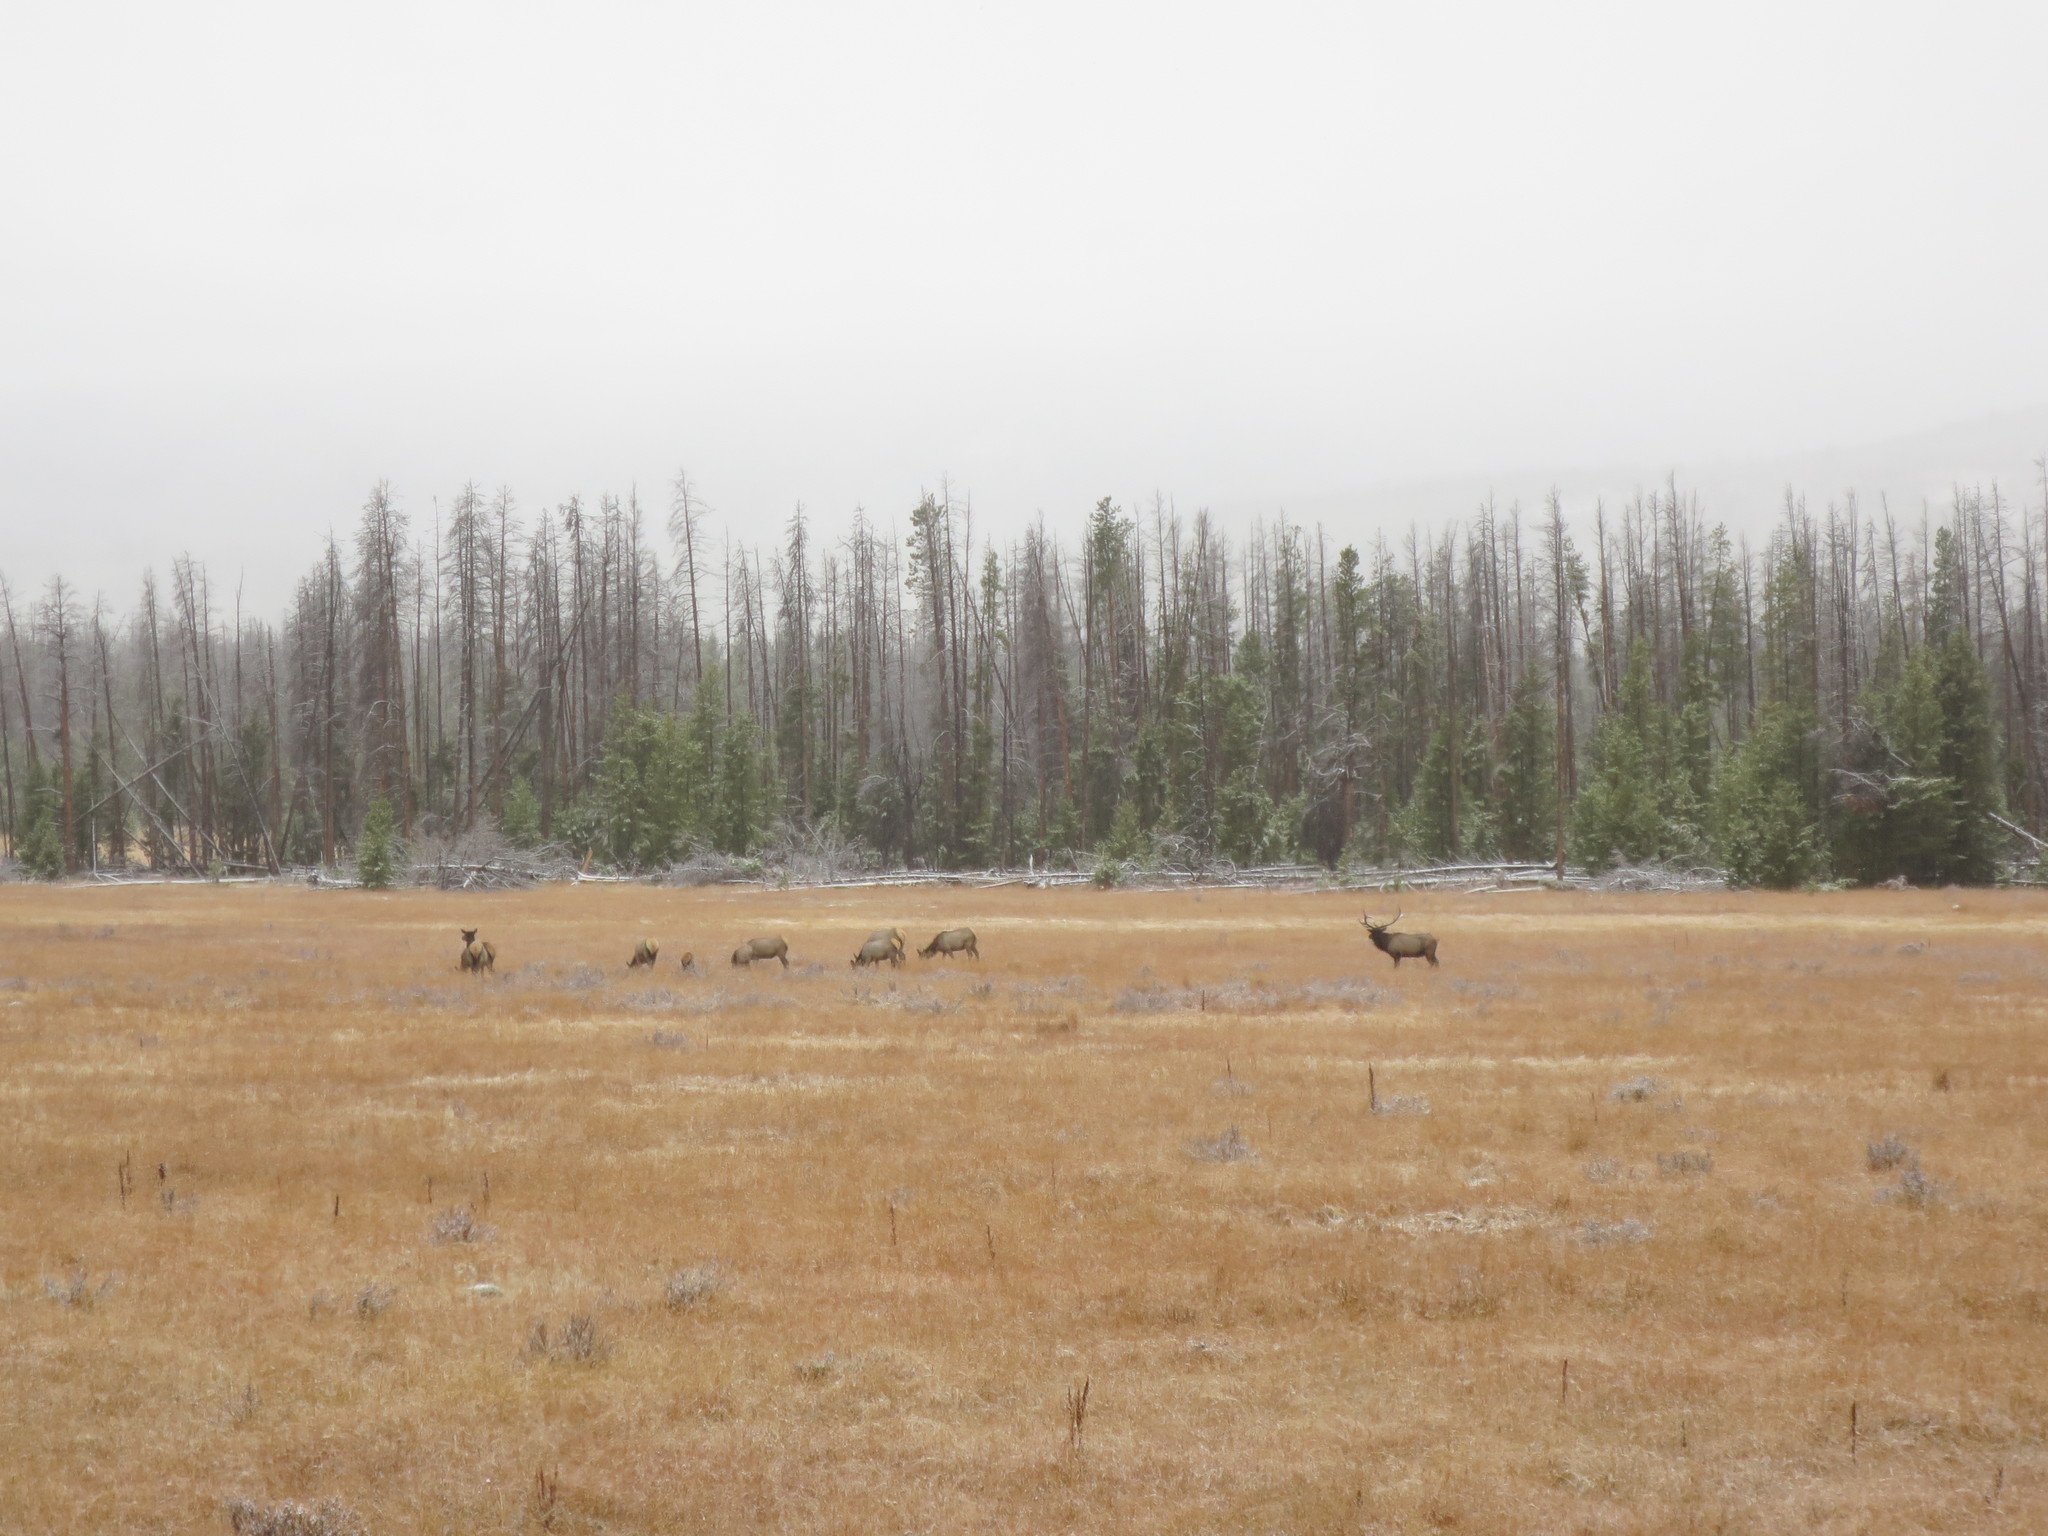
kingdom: Animalia
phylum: Chordata
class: Mammalia
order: Artiodactyla
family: Cervidae
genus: Cervus
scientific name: Cervus elaphus
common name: Red deer
